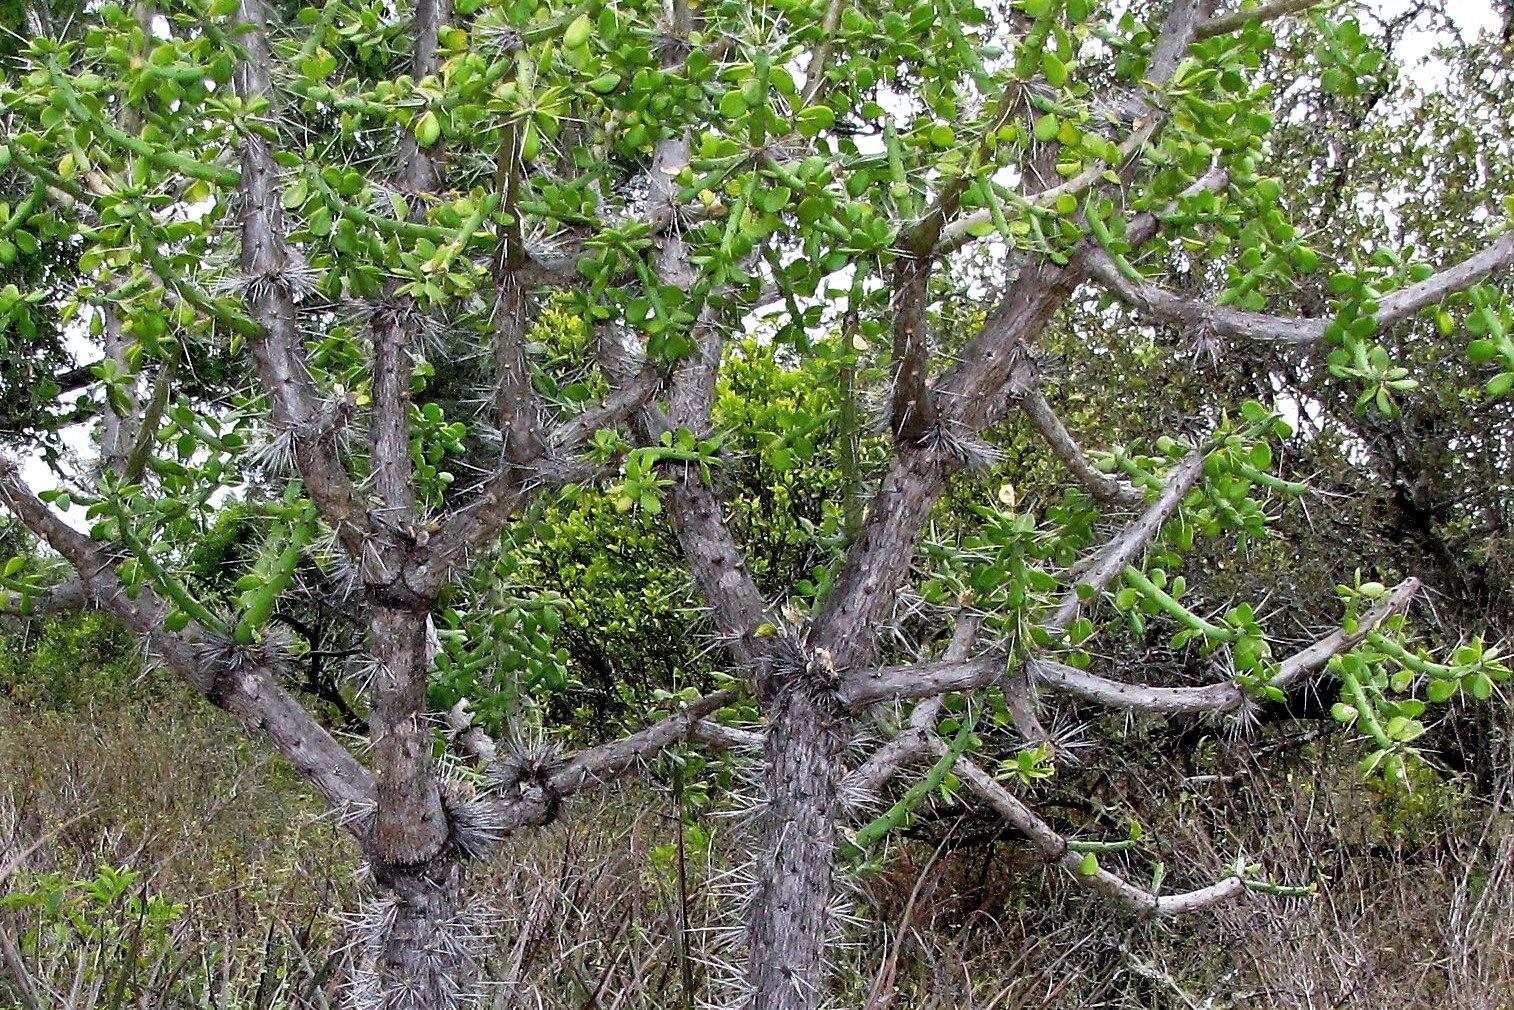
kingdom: Plantae
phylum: Tracheophyta
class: Magnoliopsida
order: Caryophyllales
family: Cactaceae
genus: Quiabentia
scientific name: Quiabentia verticillata
